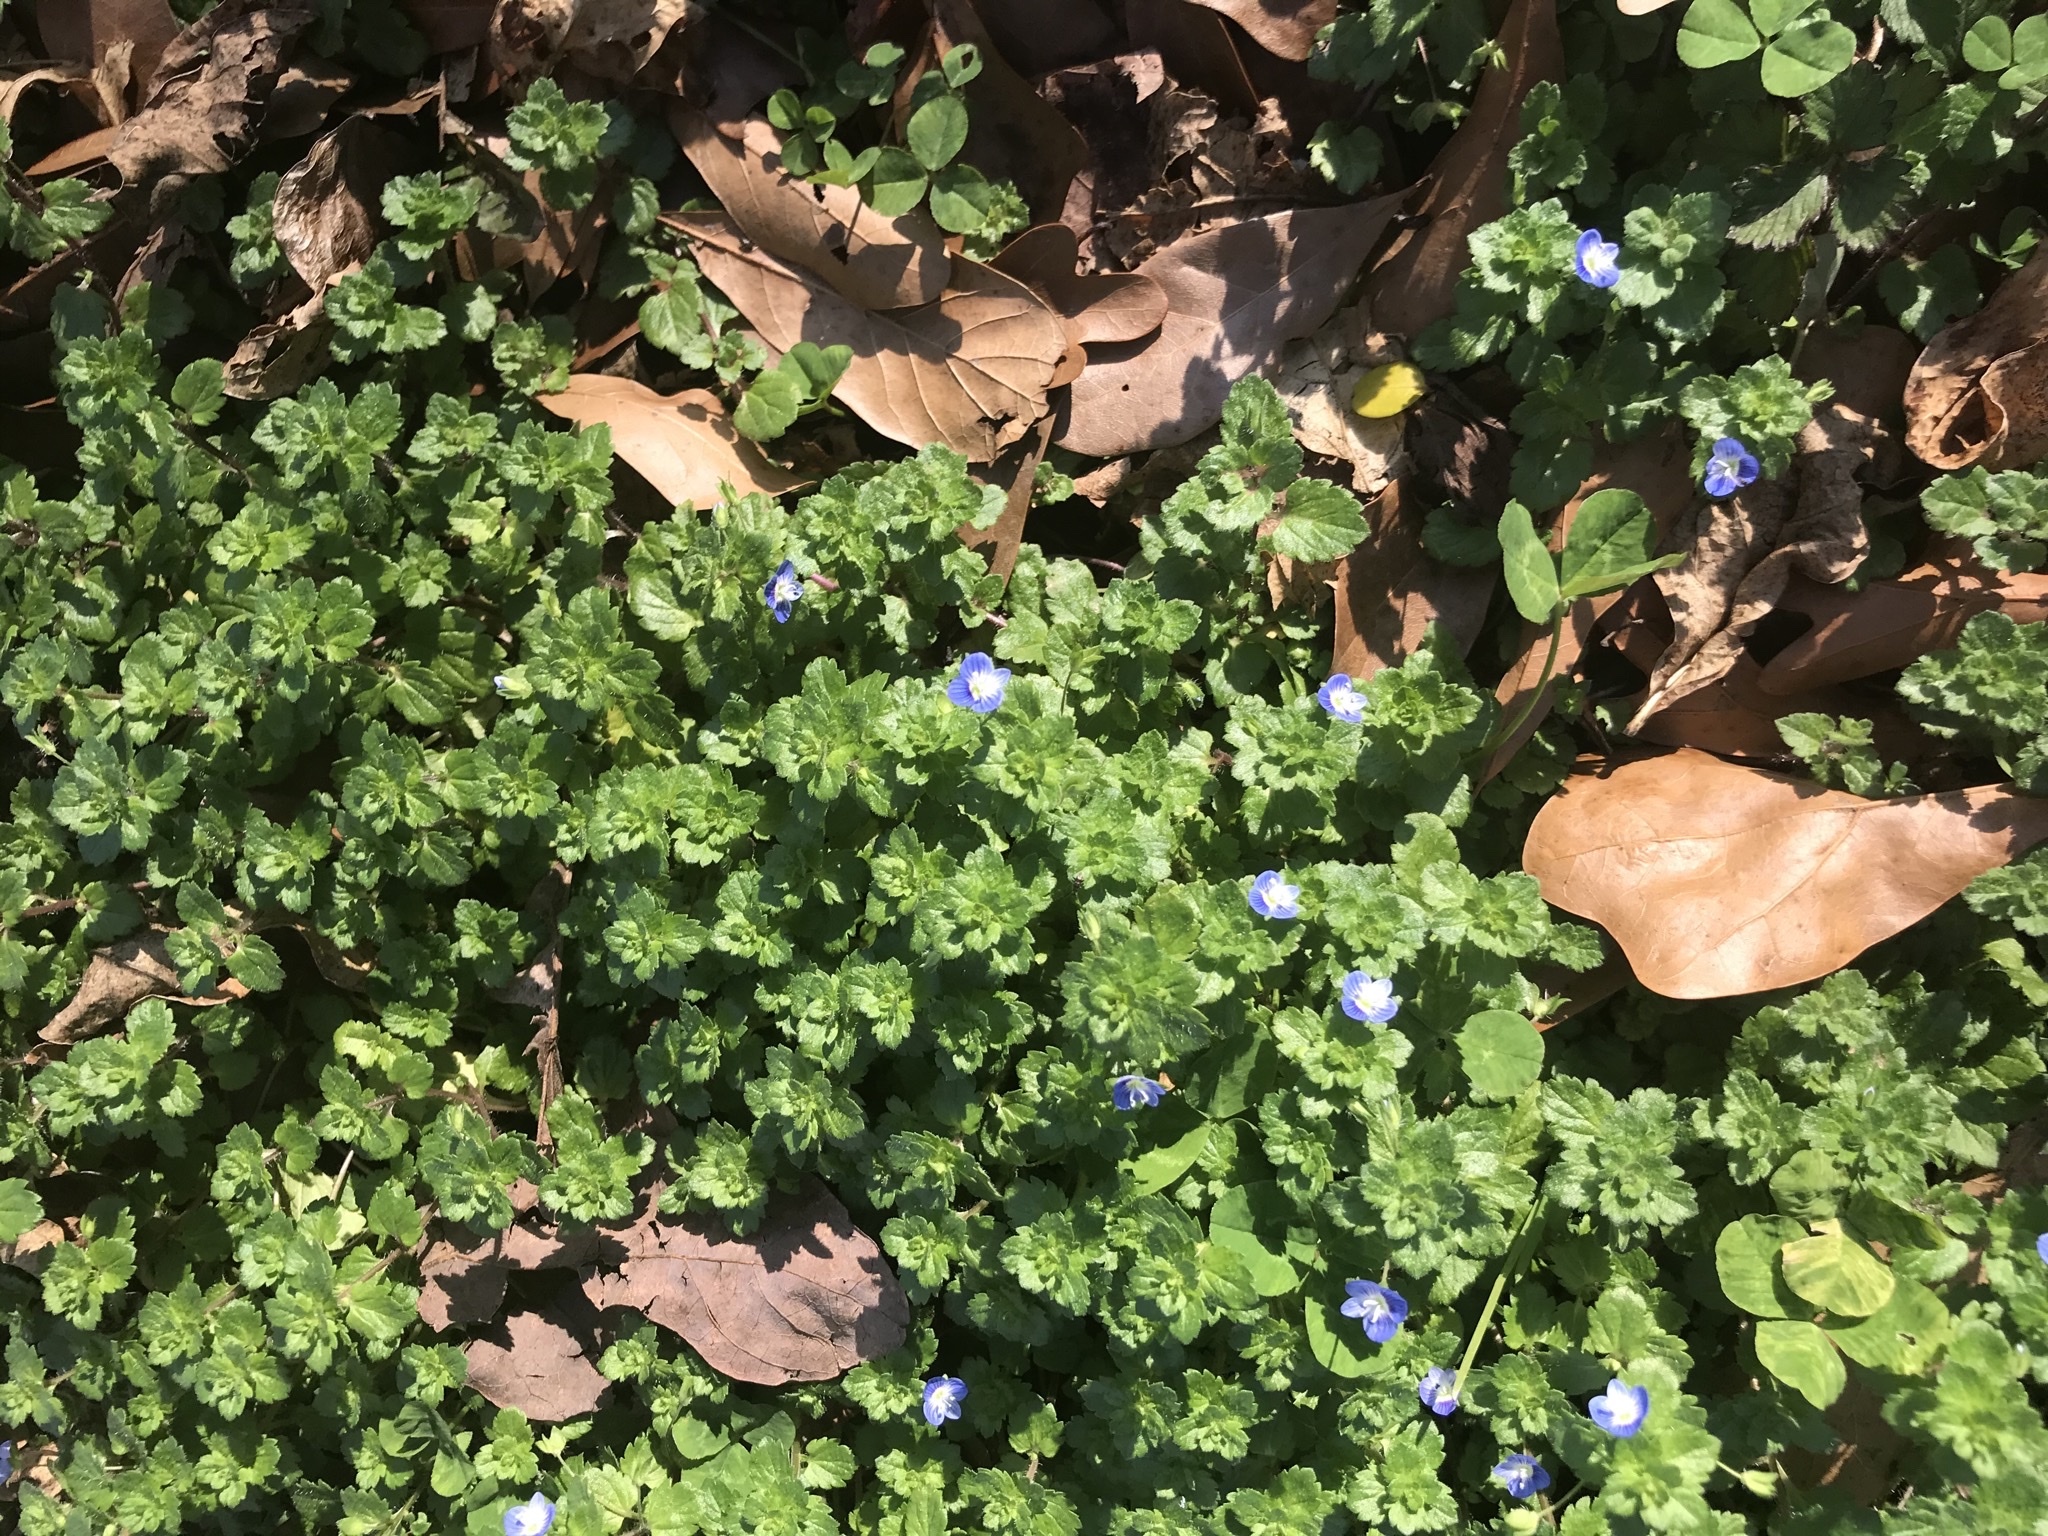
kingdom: Plantae
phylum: Tracheophyta
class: Magnoliopsida
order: Lamiales
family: Plantaginaceae
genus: Veronica
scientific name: Veronica persica
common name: Common field-speedwell
